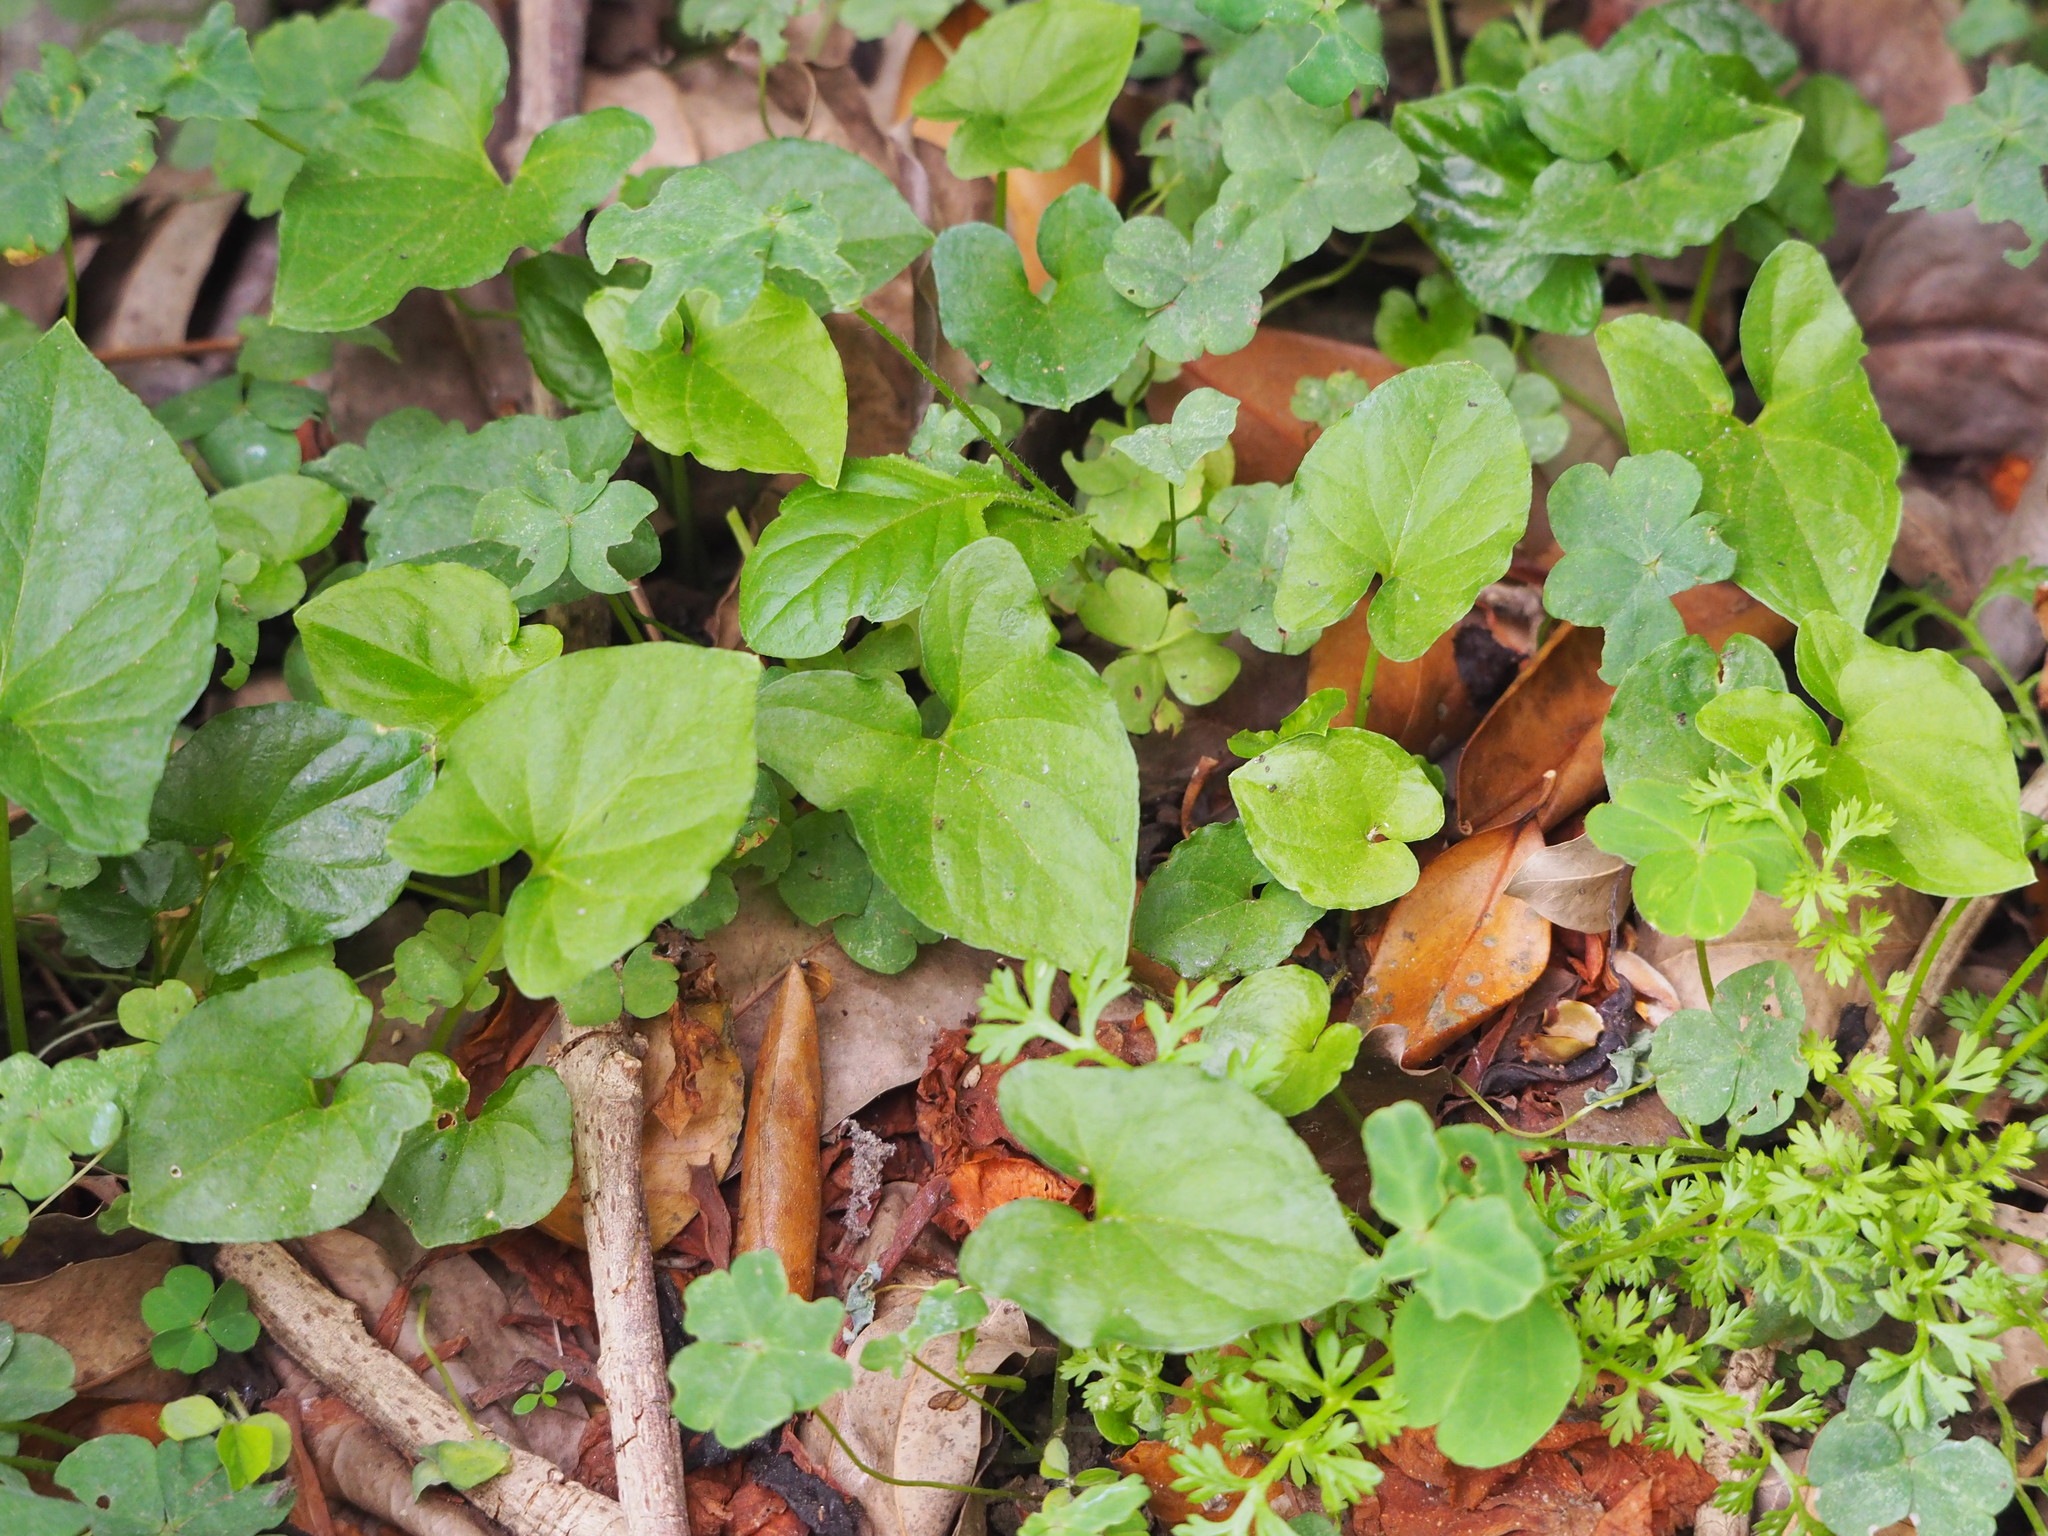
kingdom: Plantae
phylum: Tracheophyta
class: Liliopsida
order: Alismatales
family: Araceae
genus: Typhonium
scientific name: Typhonium blumei
